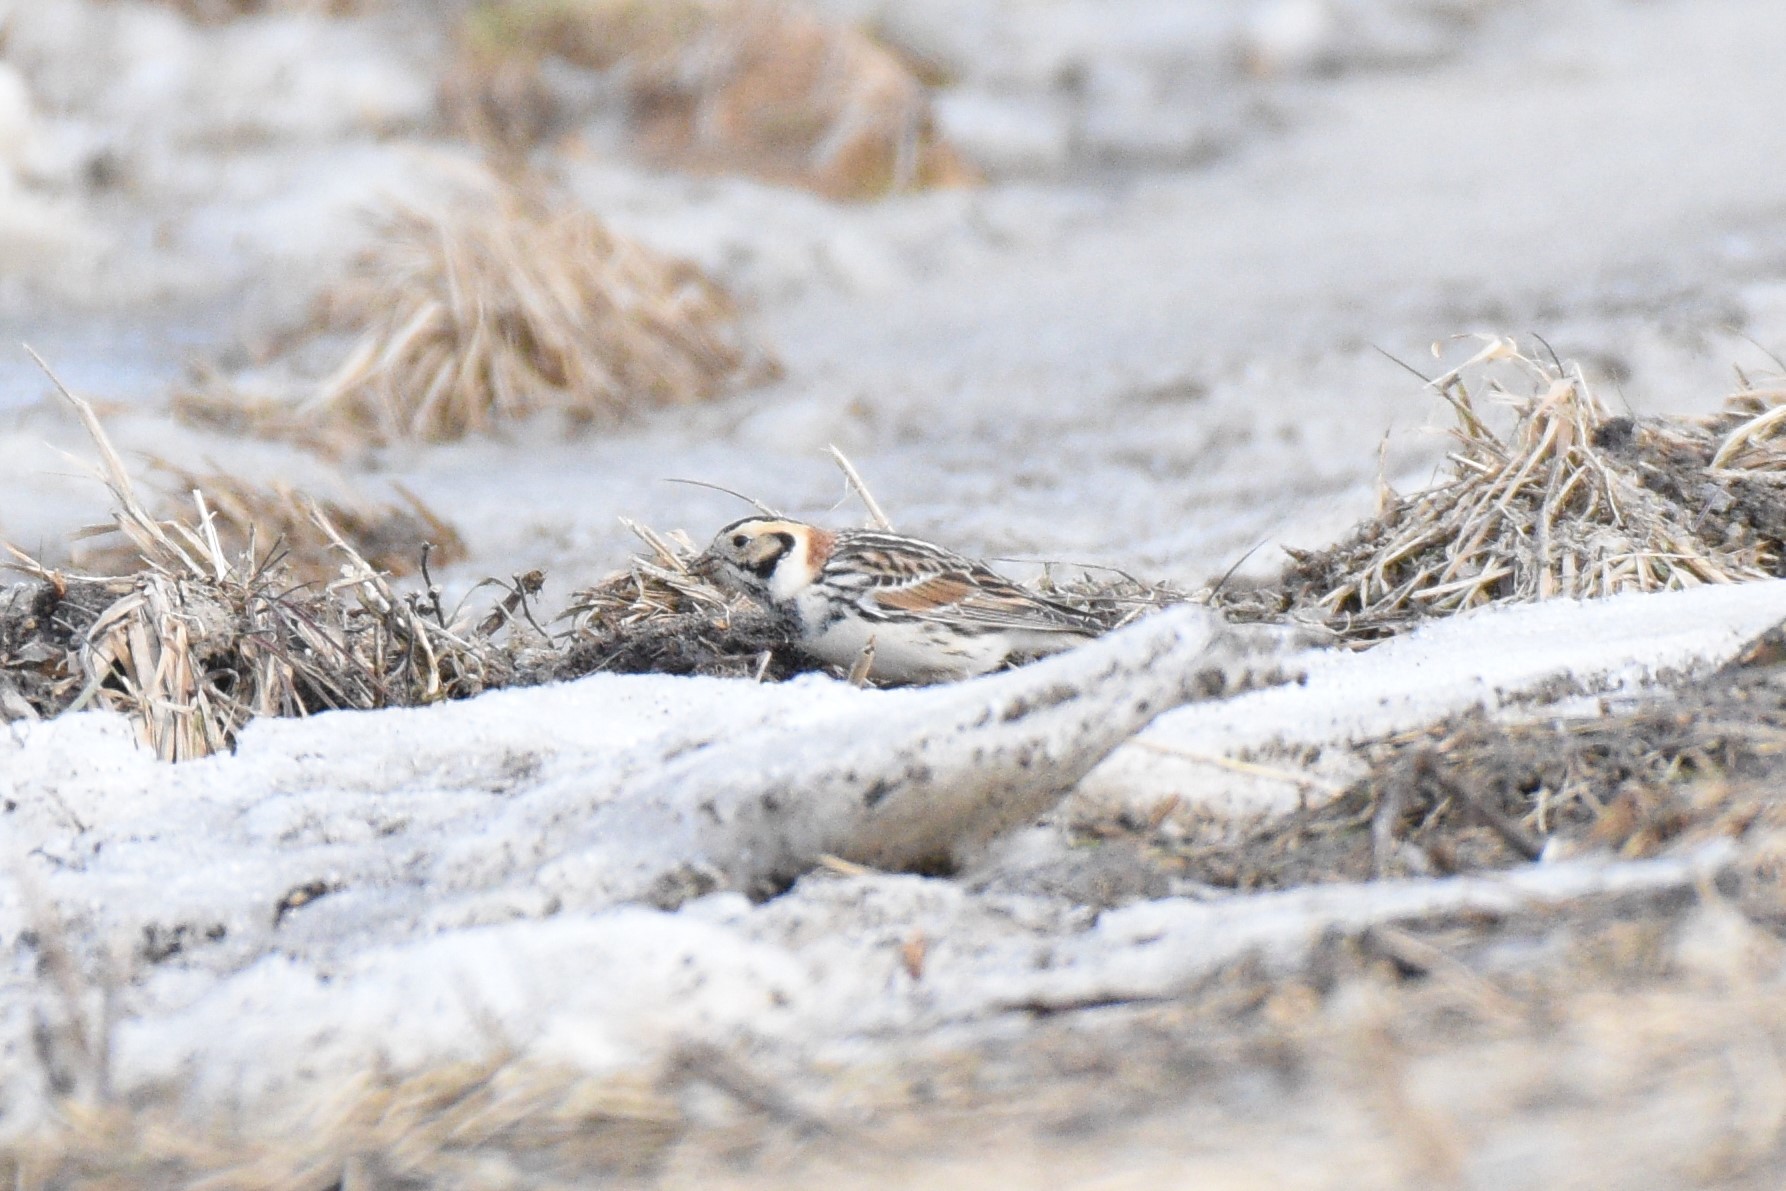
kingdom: Animalia
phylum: Chordata
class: Aves
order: Passeriformes
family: Calcariidae
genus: Calcarius
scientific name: Calcarius lapponicus
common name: Lapland longspur
